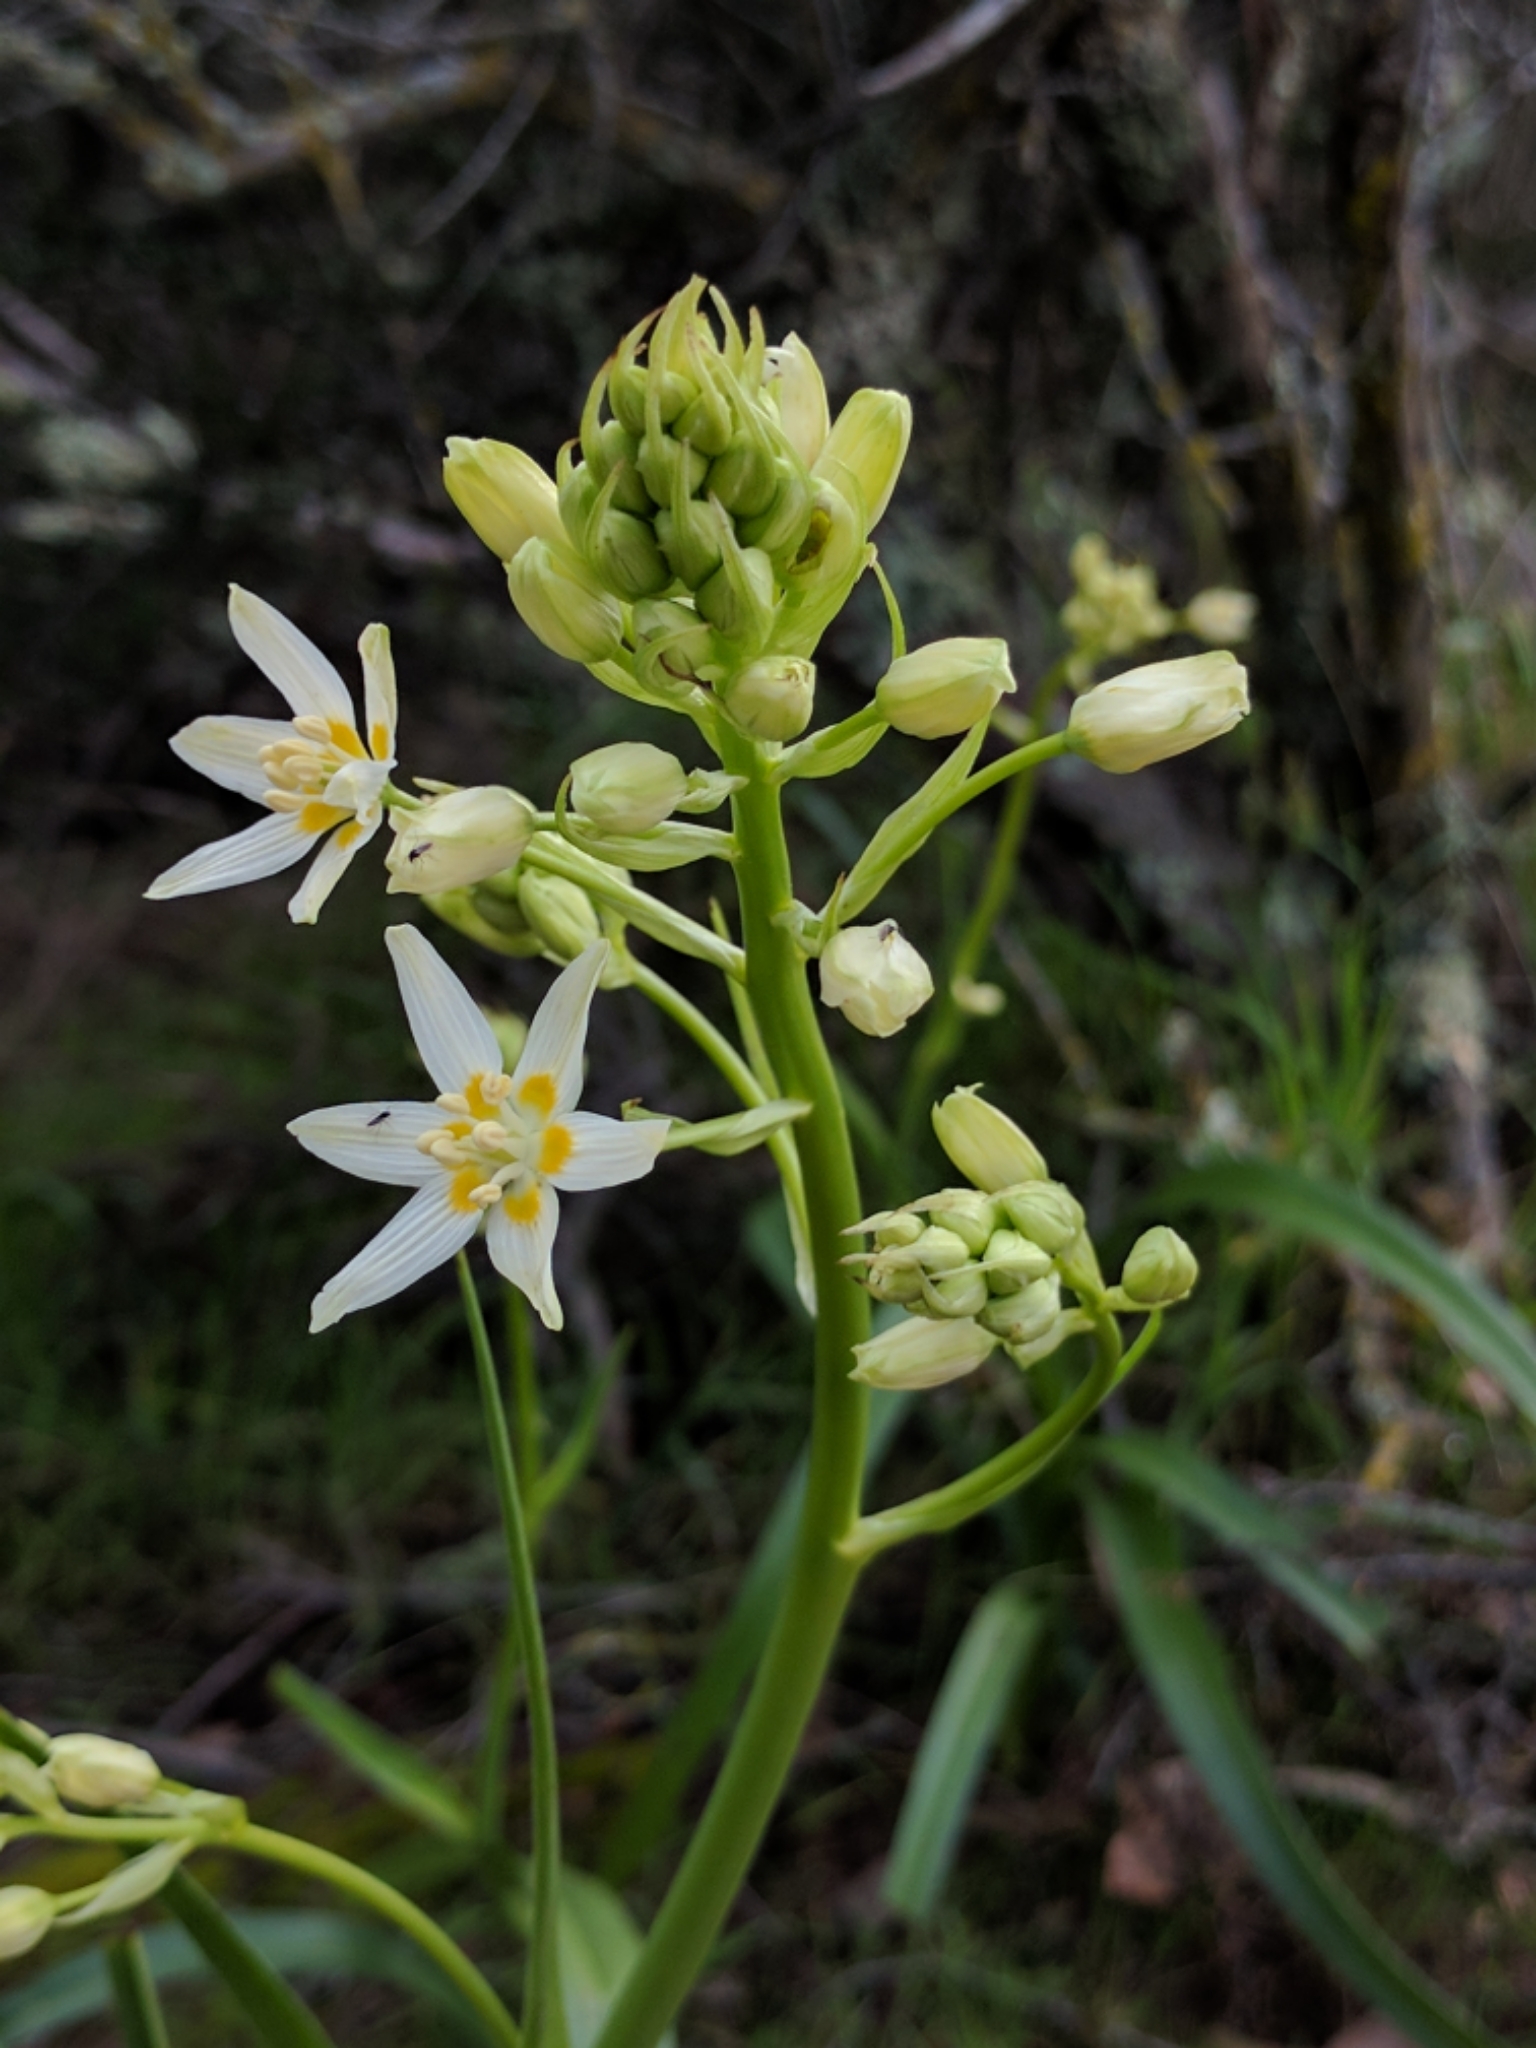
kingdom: Plantae
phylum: Tracheophyta
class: Liliopsida
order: Liliales
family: Melanthiaceae
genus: Toxicoscordion
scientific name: Toxicoscordion fremontii
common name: Fremont's death camas
